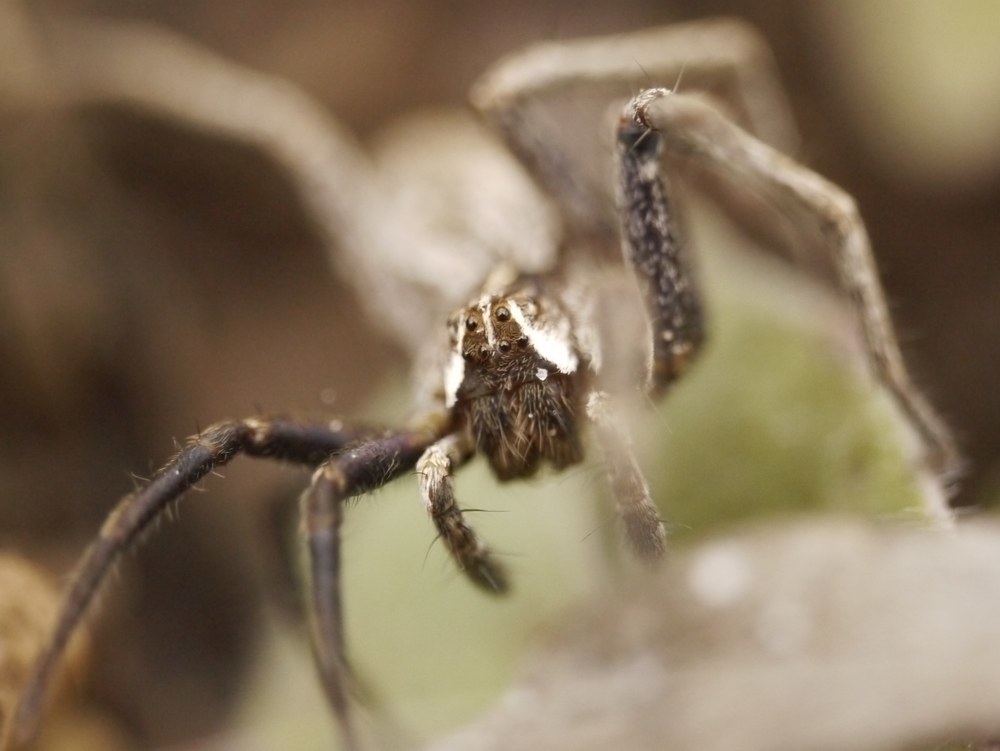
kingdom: Animalia
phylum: Arthropoda
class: Arachnida
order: Araneae
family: Pisauridae
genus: Pisaura
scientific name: Pisaura
